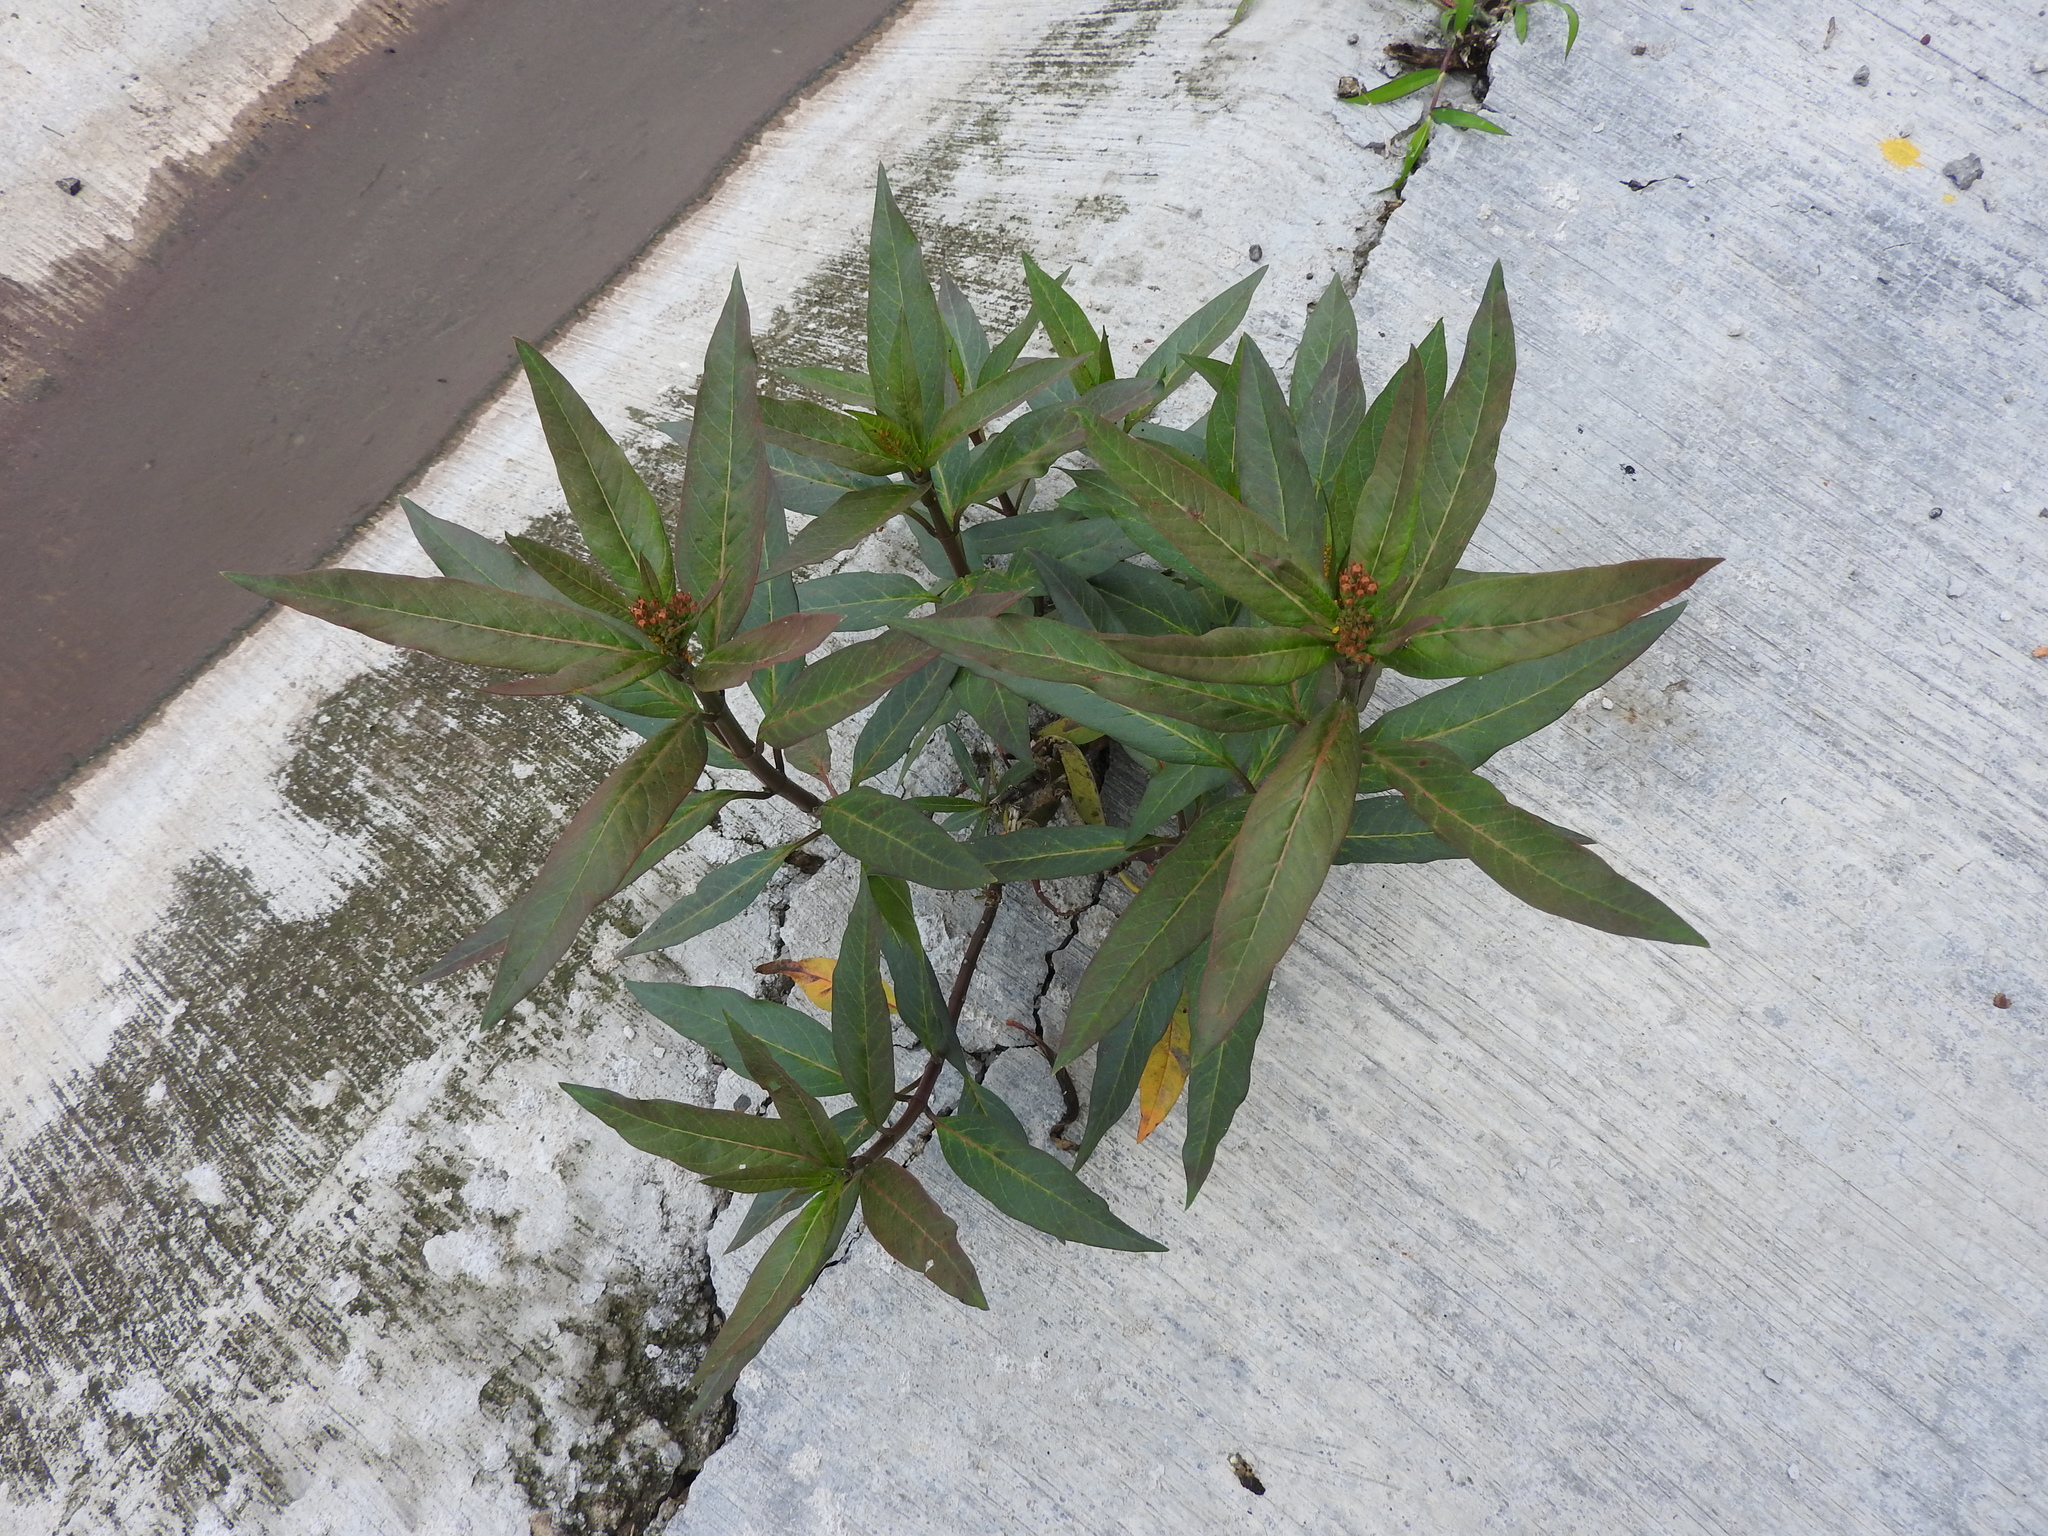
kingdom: Plantae
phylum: Tracheophyta
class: Magnoliopsida
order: Gentianales
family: Apocynaceae
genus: Asclepias
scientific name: Asclepias curassavica
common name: Bloodflower
